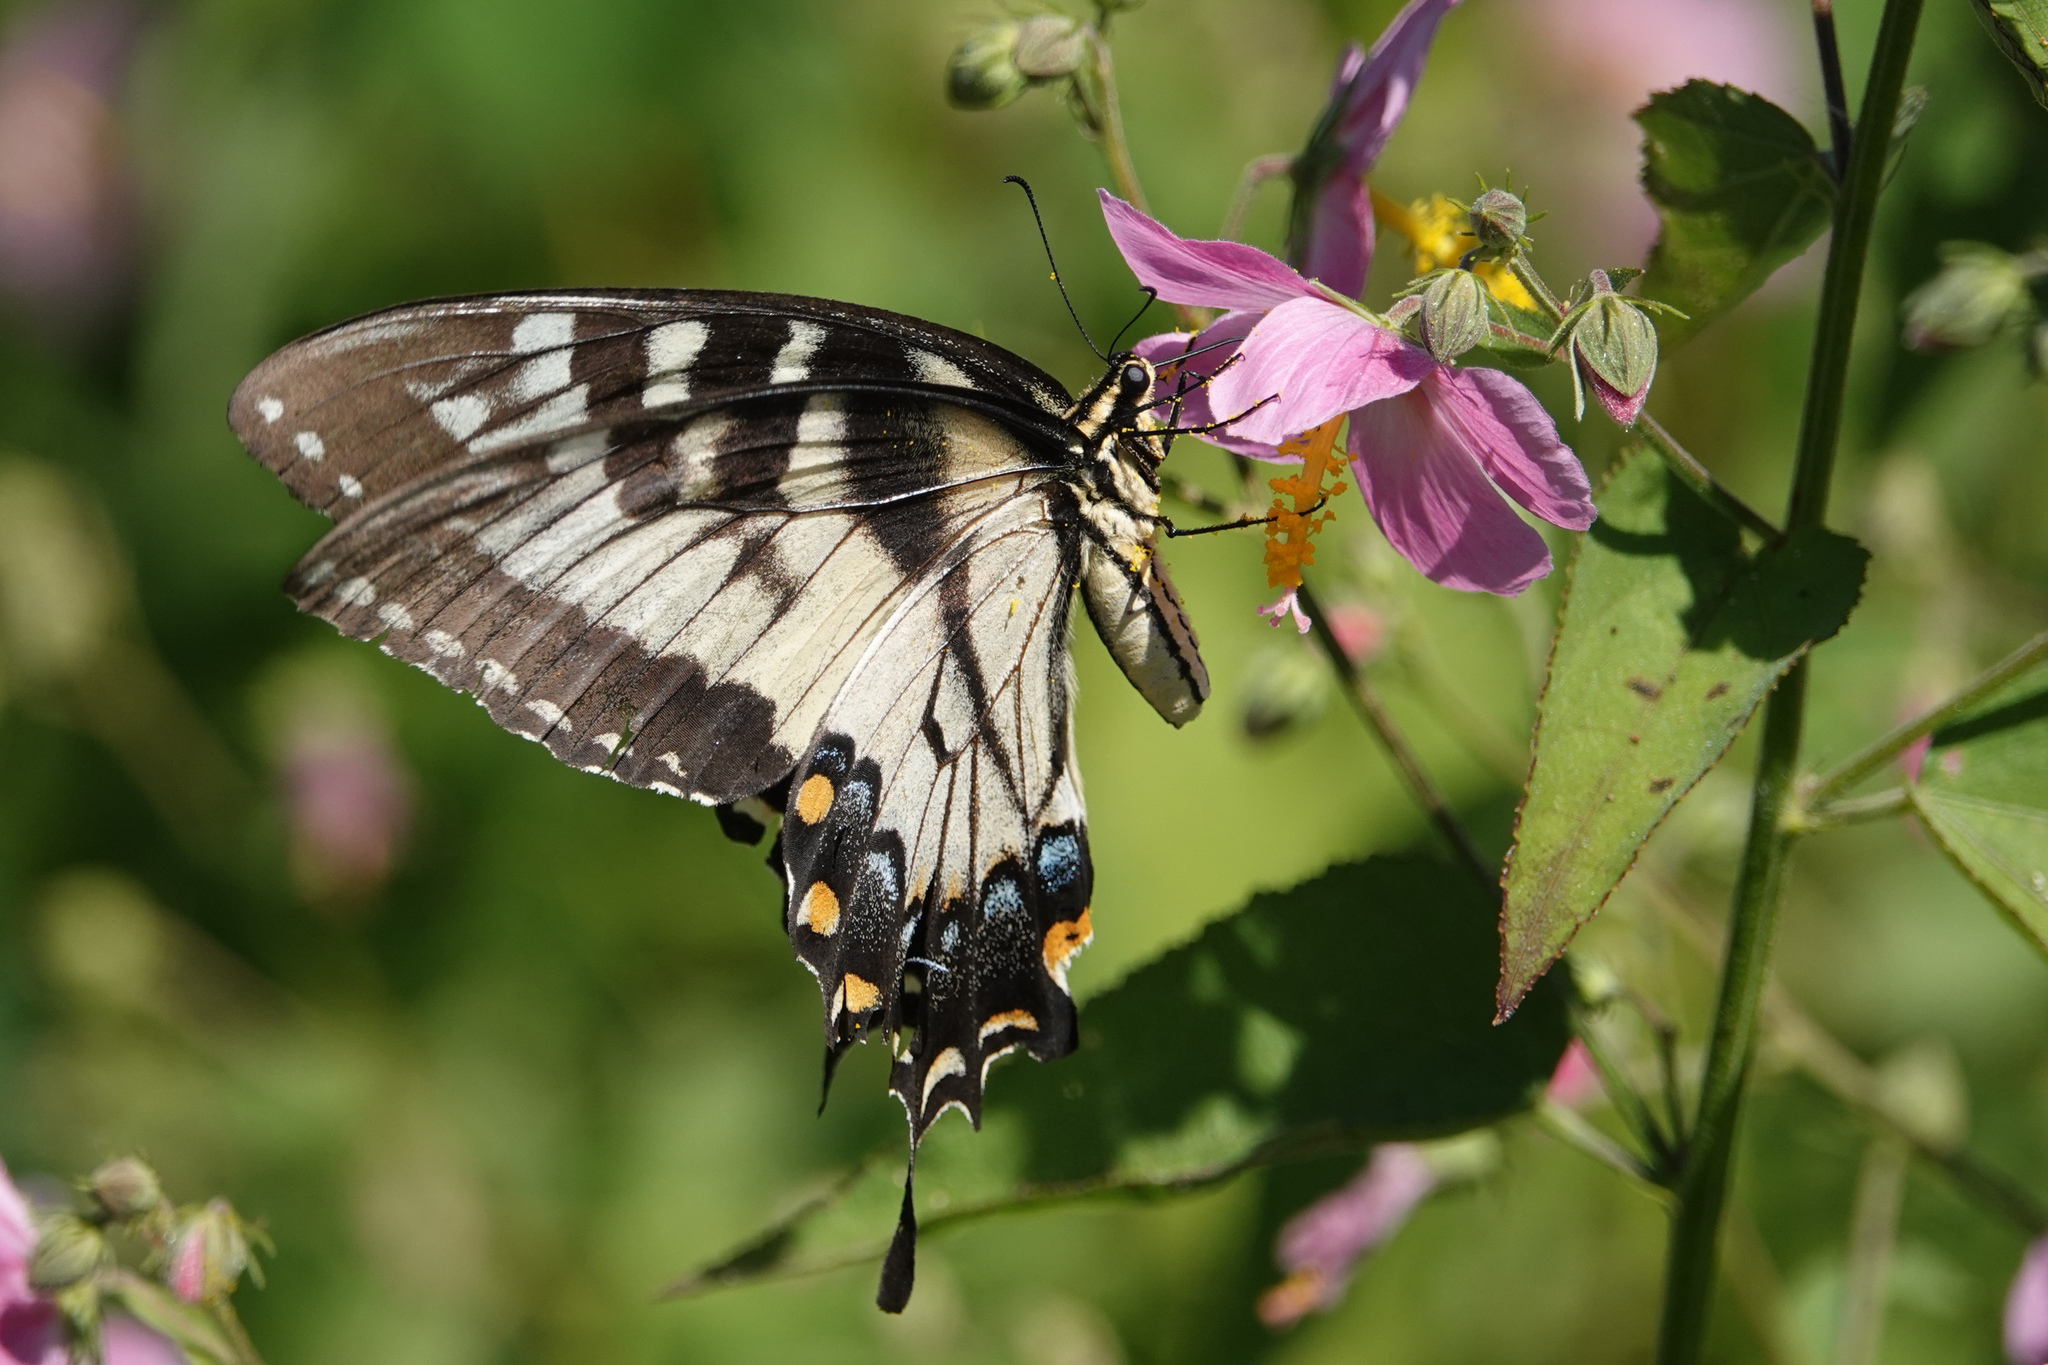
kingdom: Animalia
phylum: Arthropoda
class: Insecta
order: Lepidoptera
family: Papilionidae
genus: Papilio
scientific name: Papilio glaucus
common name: Tiger swallowtail
